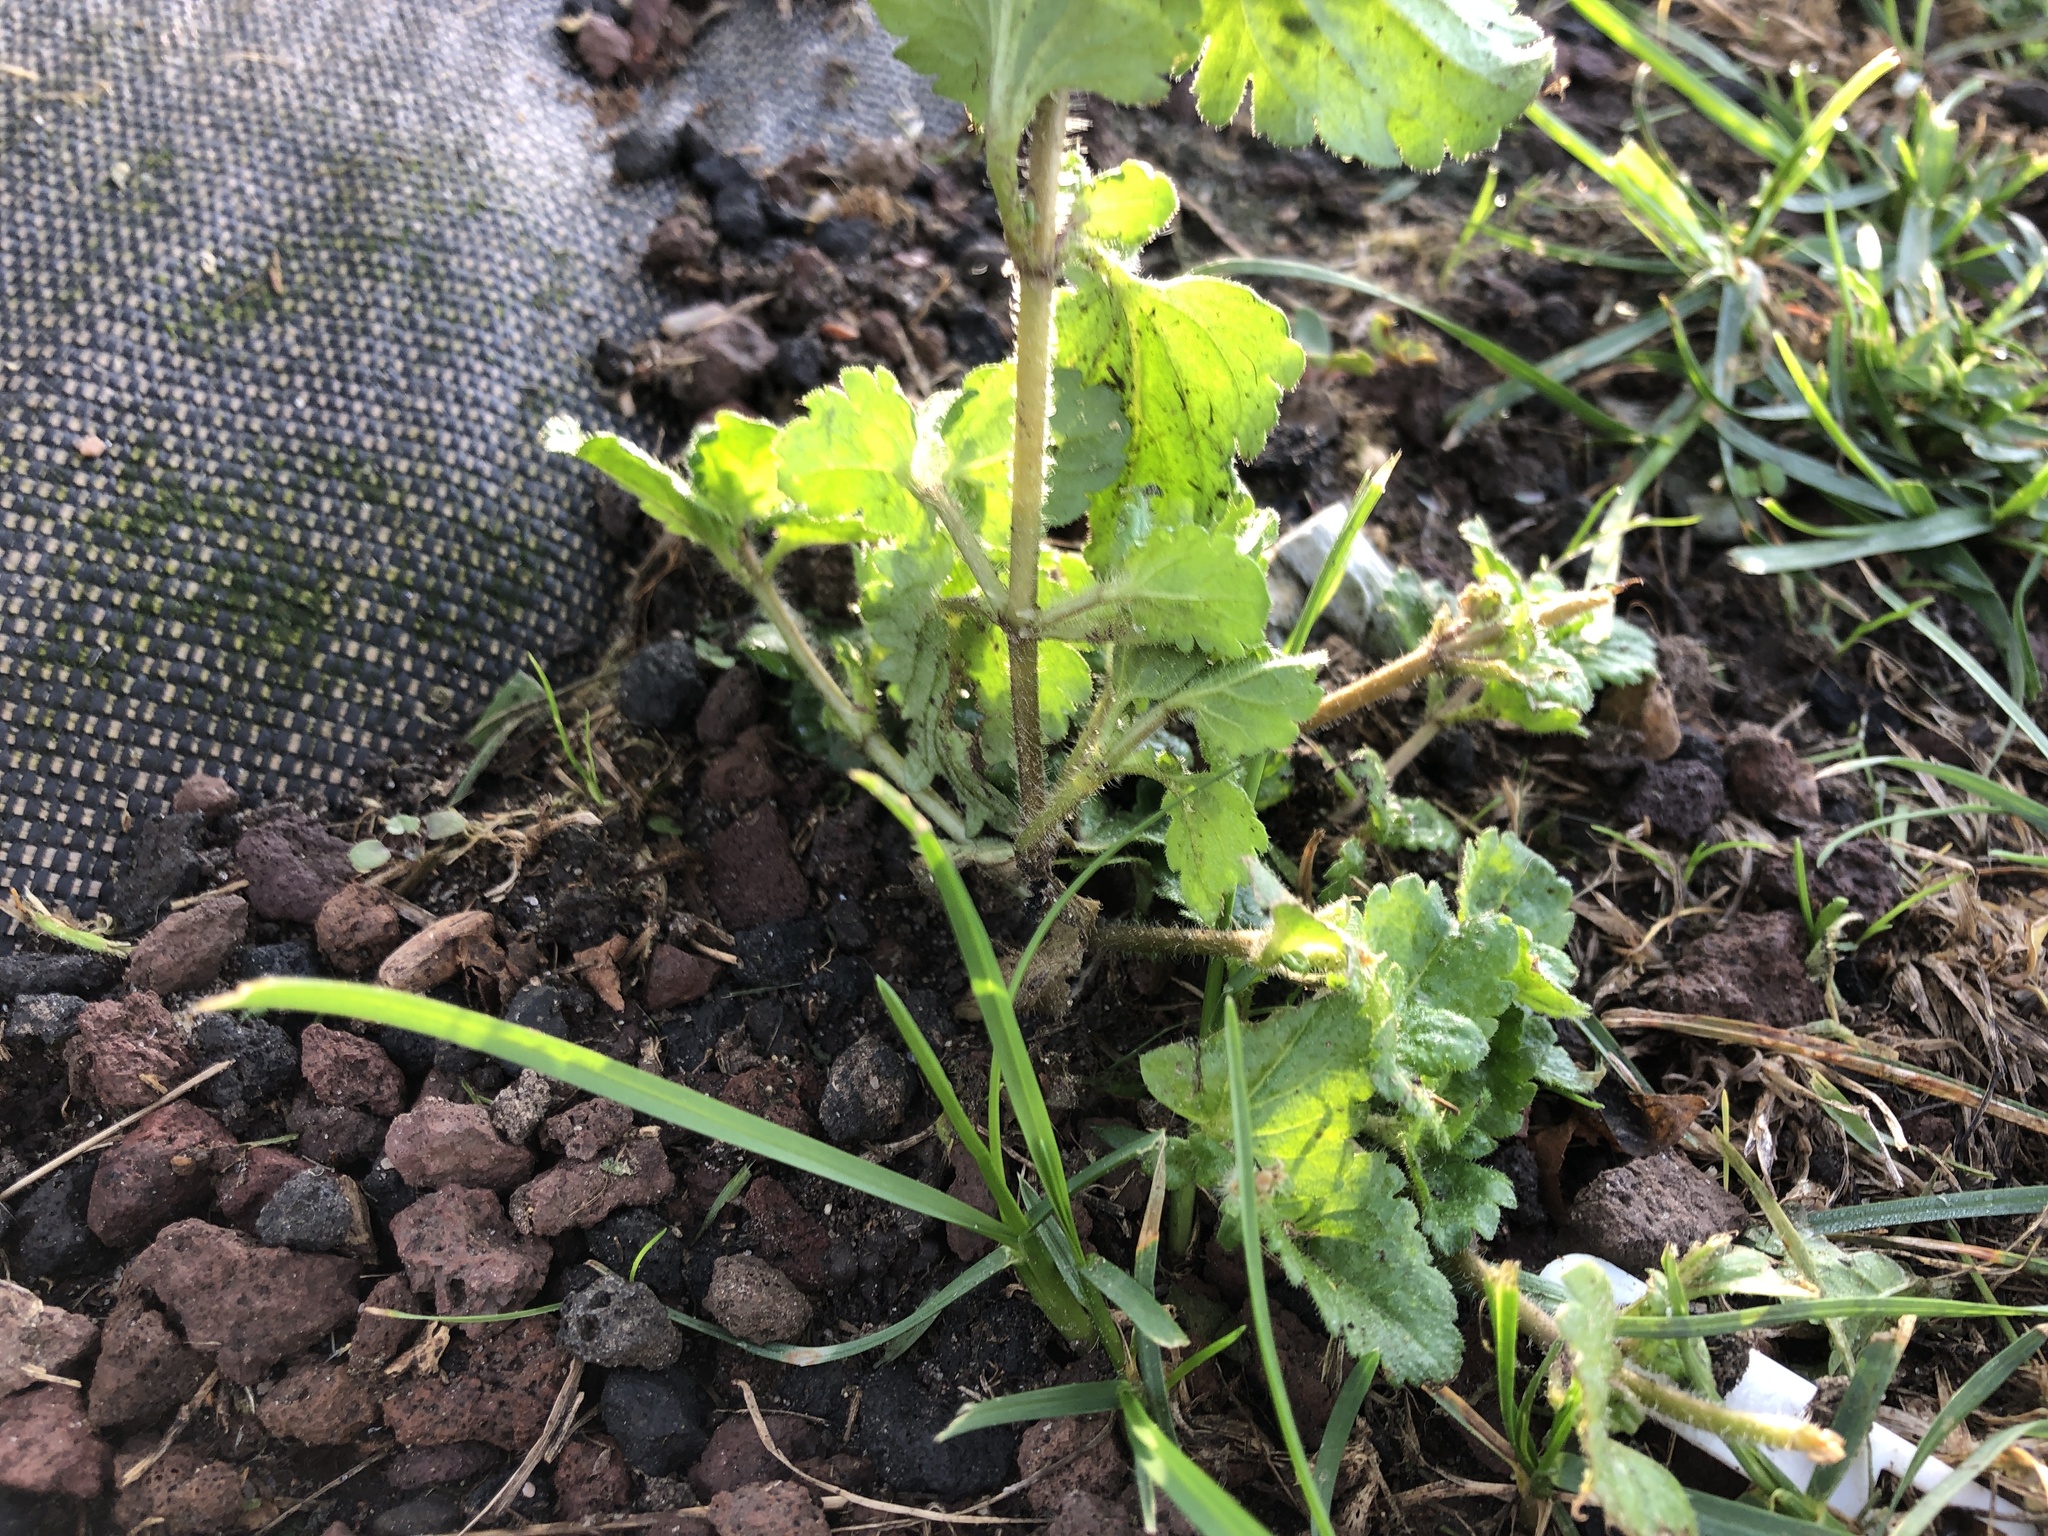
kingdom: Plantae
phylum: Tracheophyta
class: Magnoliopsida
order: Lamiales
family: Plantaginaceae
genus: Veronica
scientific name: Veronica persica
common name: Common field-speedwell
